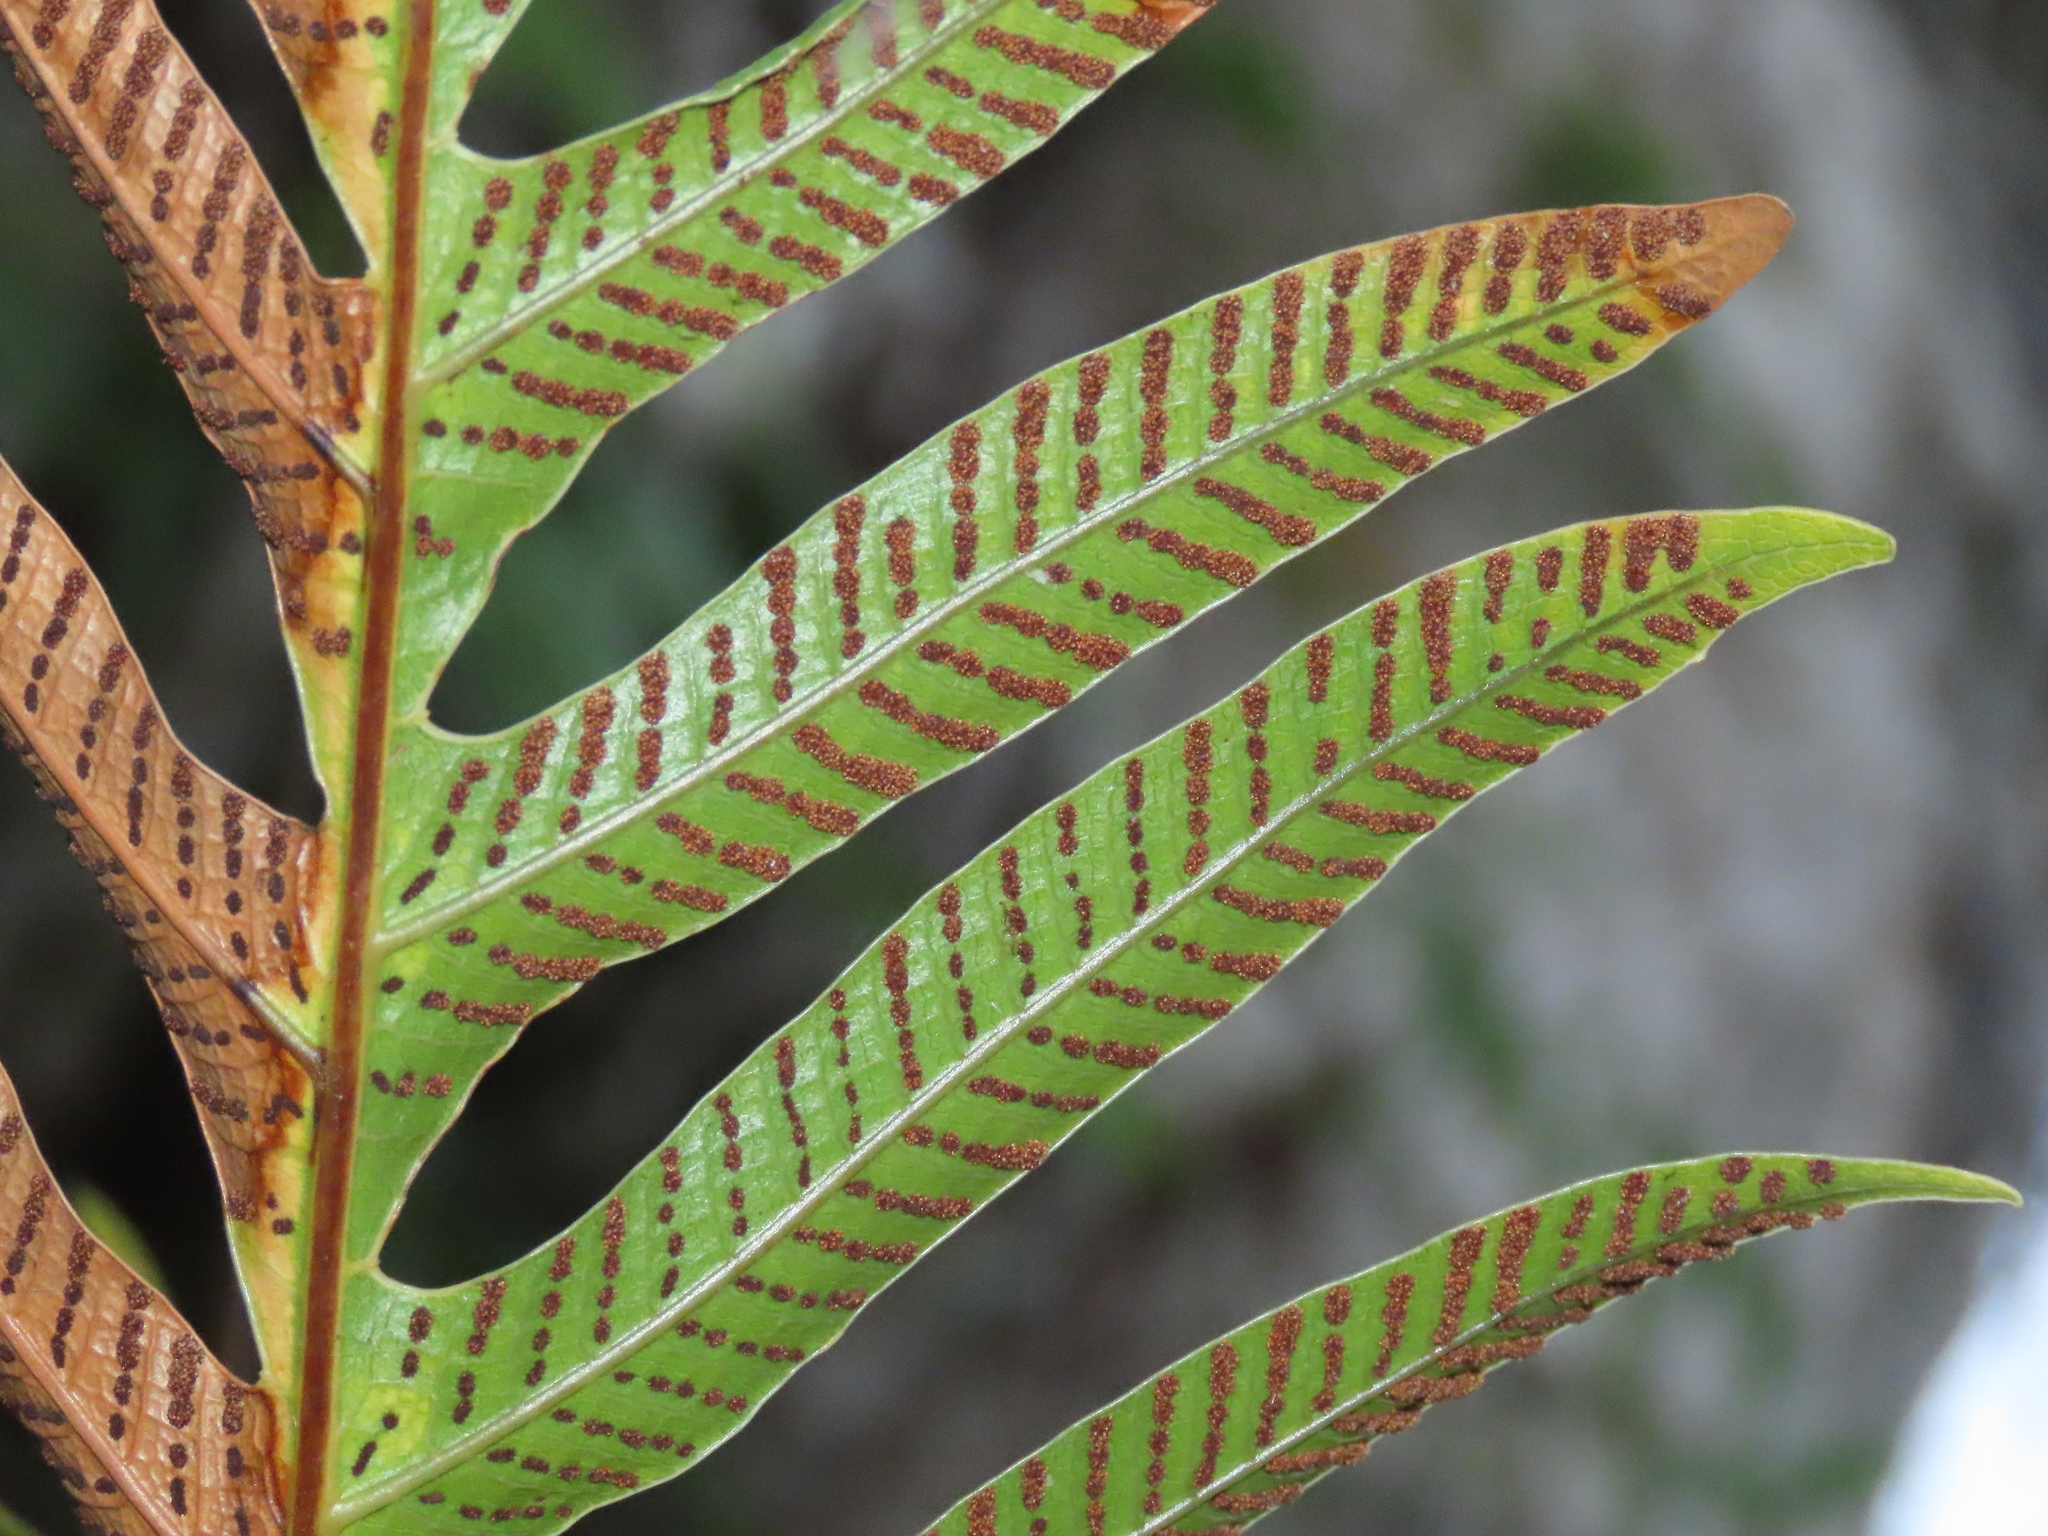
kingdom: Plantae
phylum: Tracheophyta
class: Polypodiopsida
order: Polypodiales
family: Polypodiaceae
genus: Drynaria
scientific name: Drynaria coronans
